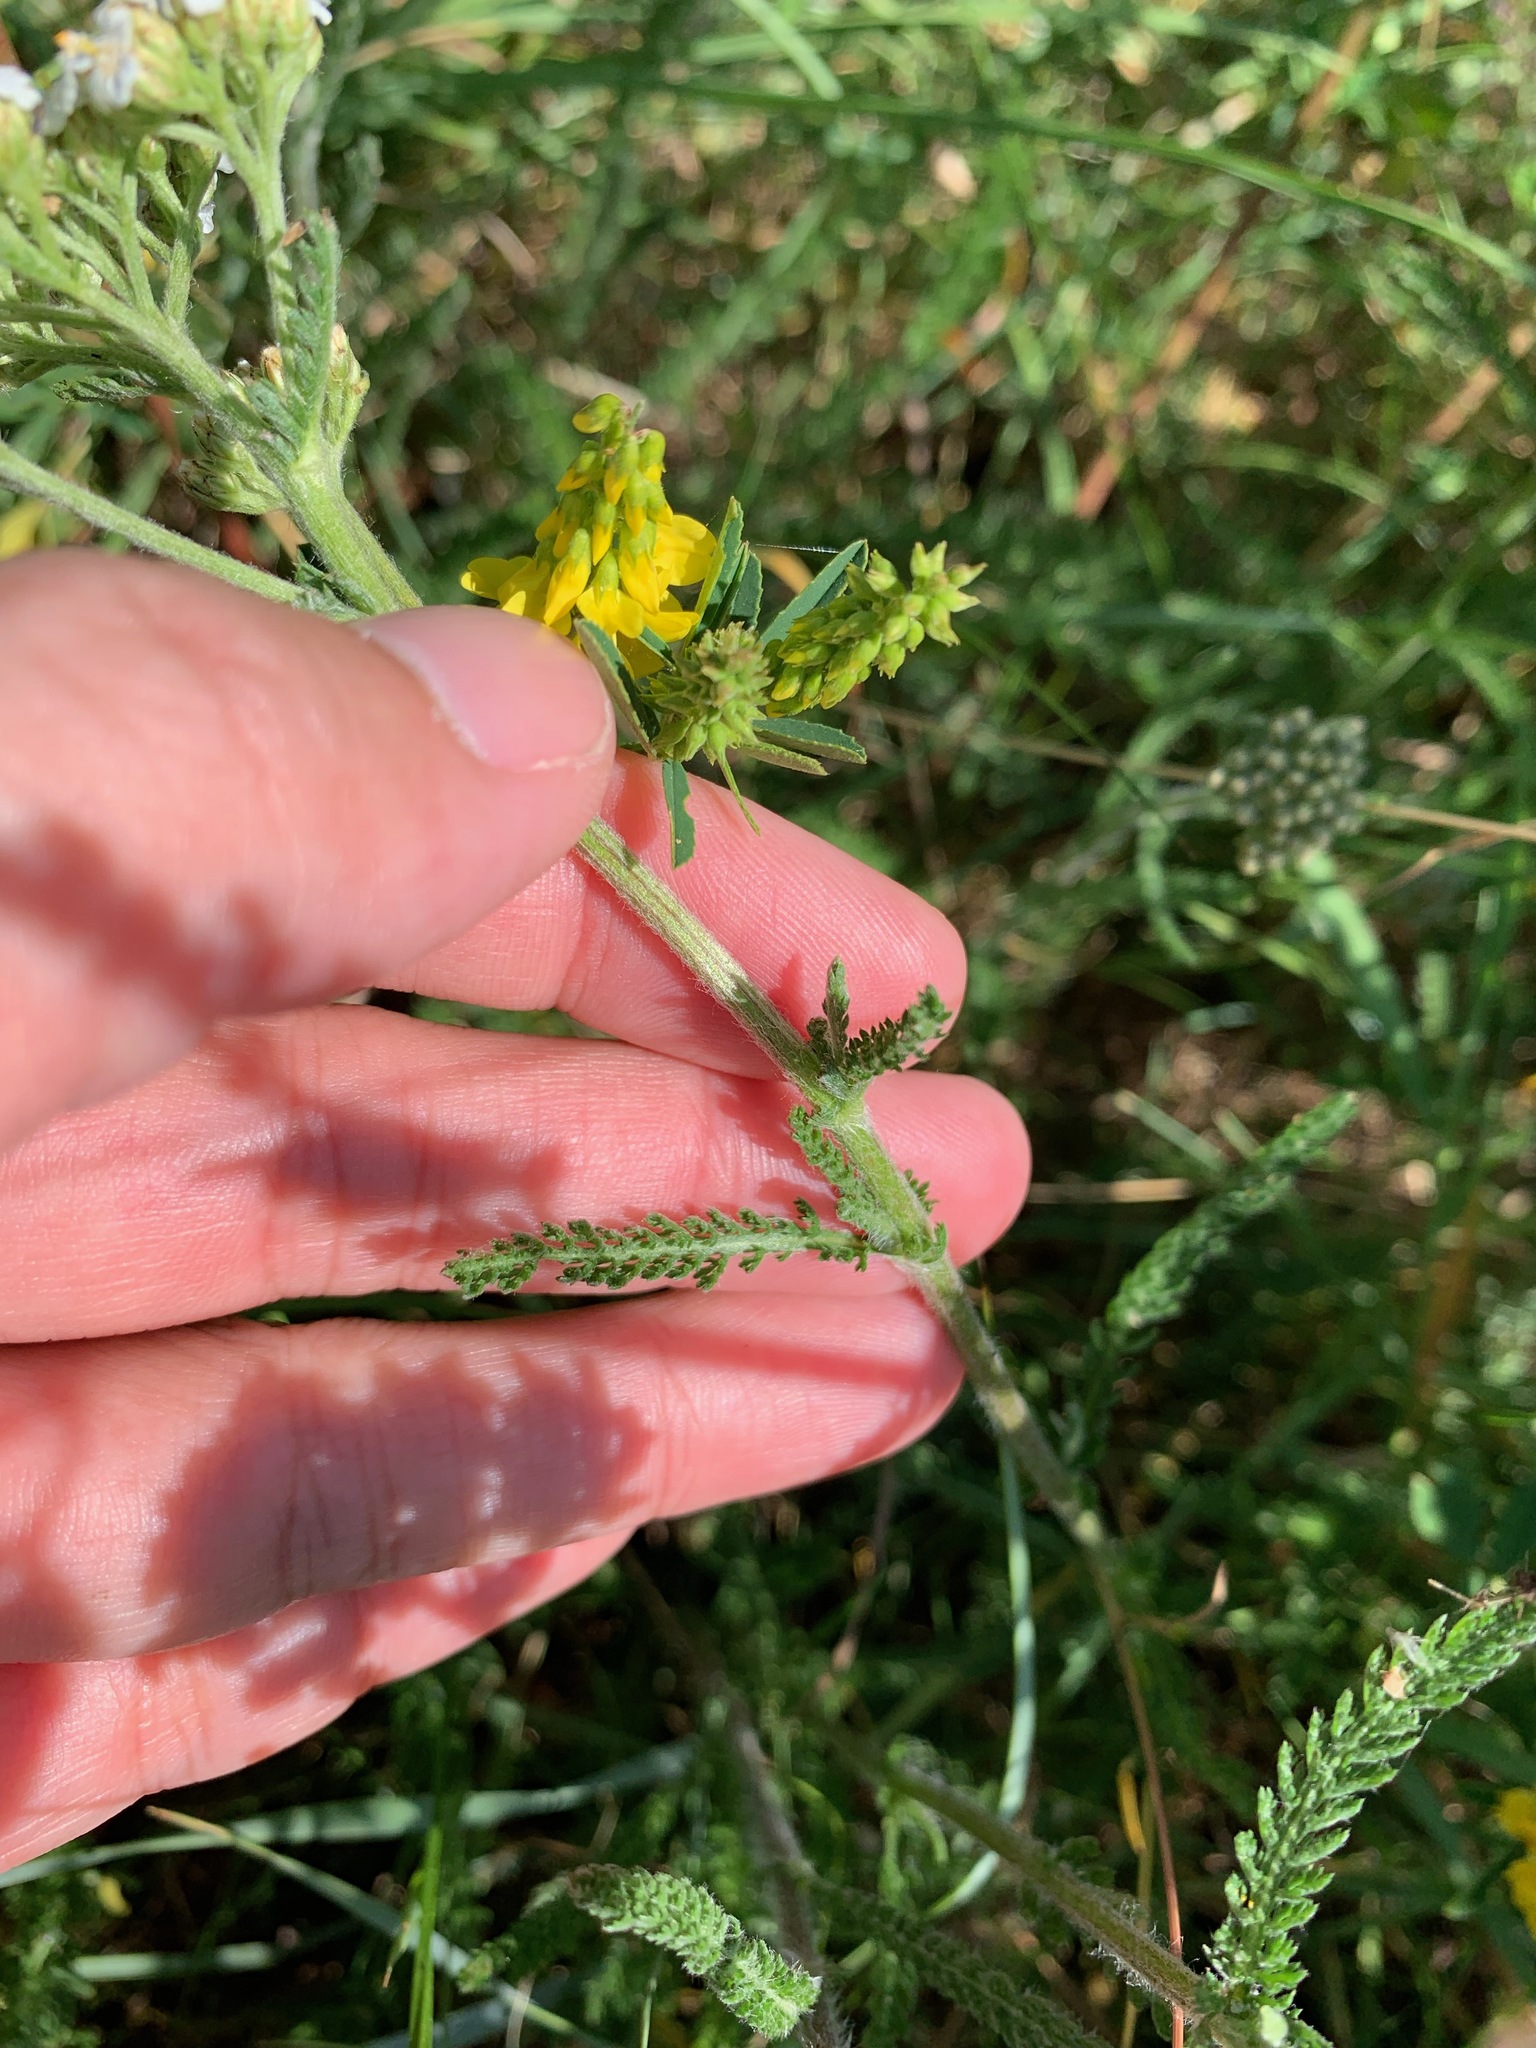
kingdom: Plantae
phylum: Tracheophyta
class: Magnoliopsida
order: Asterales
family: Asteraceae
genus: Achillea
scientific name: Achillea millefolium
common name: Yarrow
